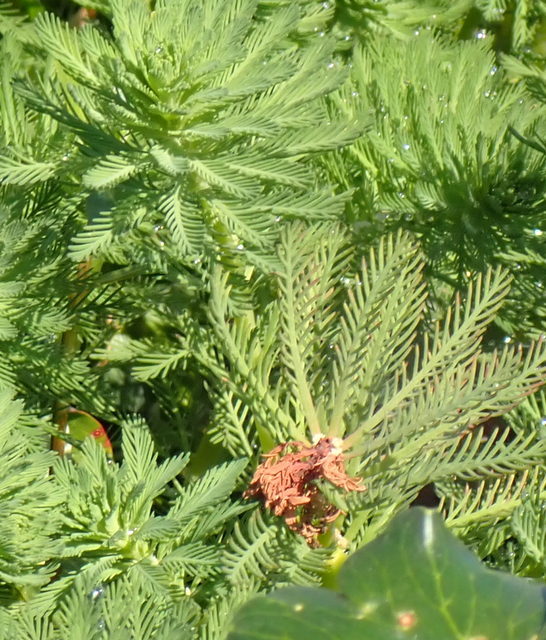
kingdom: Plantae
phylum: Tracheophyta
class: Magnoliopsida
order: Saxifragales
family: Haloragaceae
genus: Myriophyllum
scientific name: Myriophyllum aquaticum
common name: Parrot's feather
